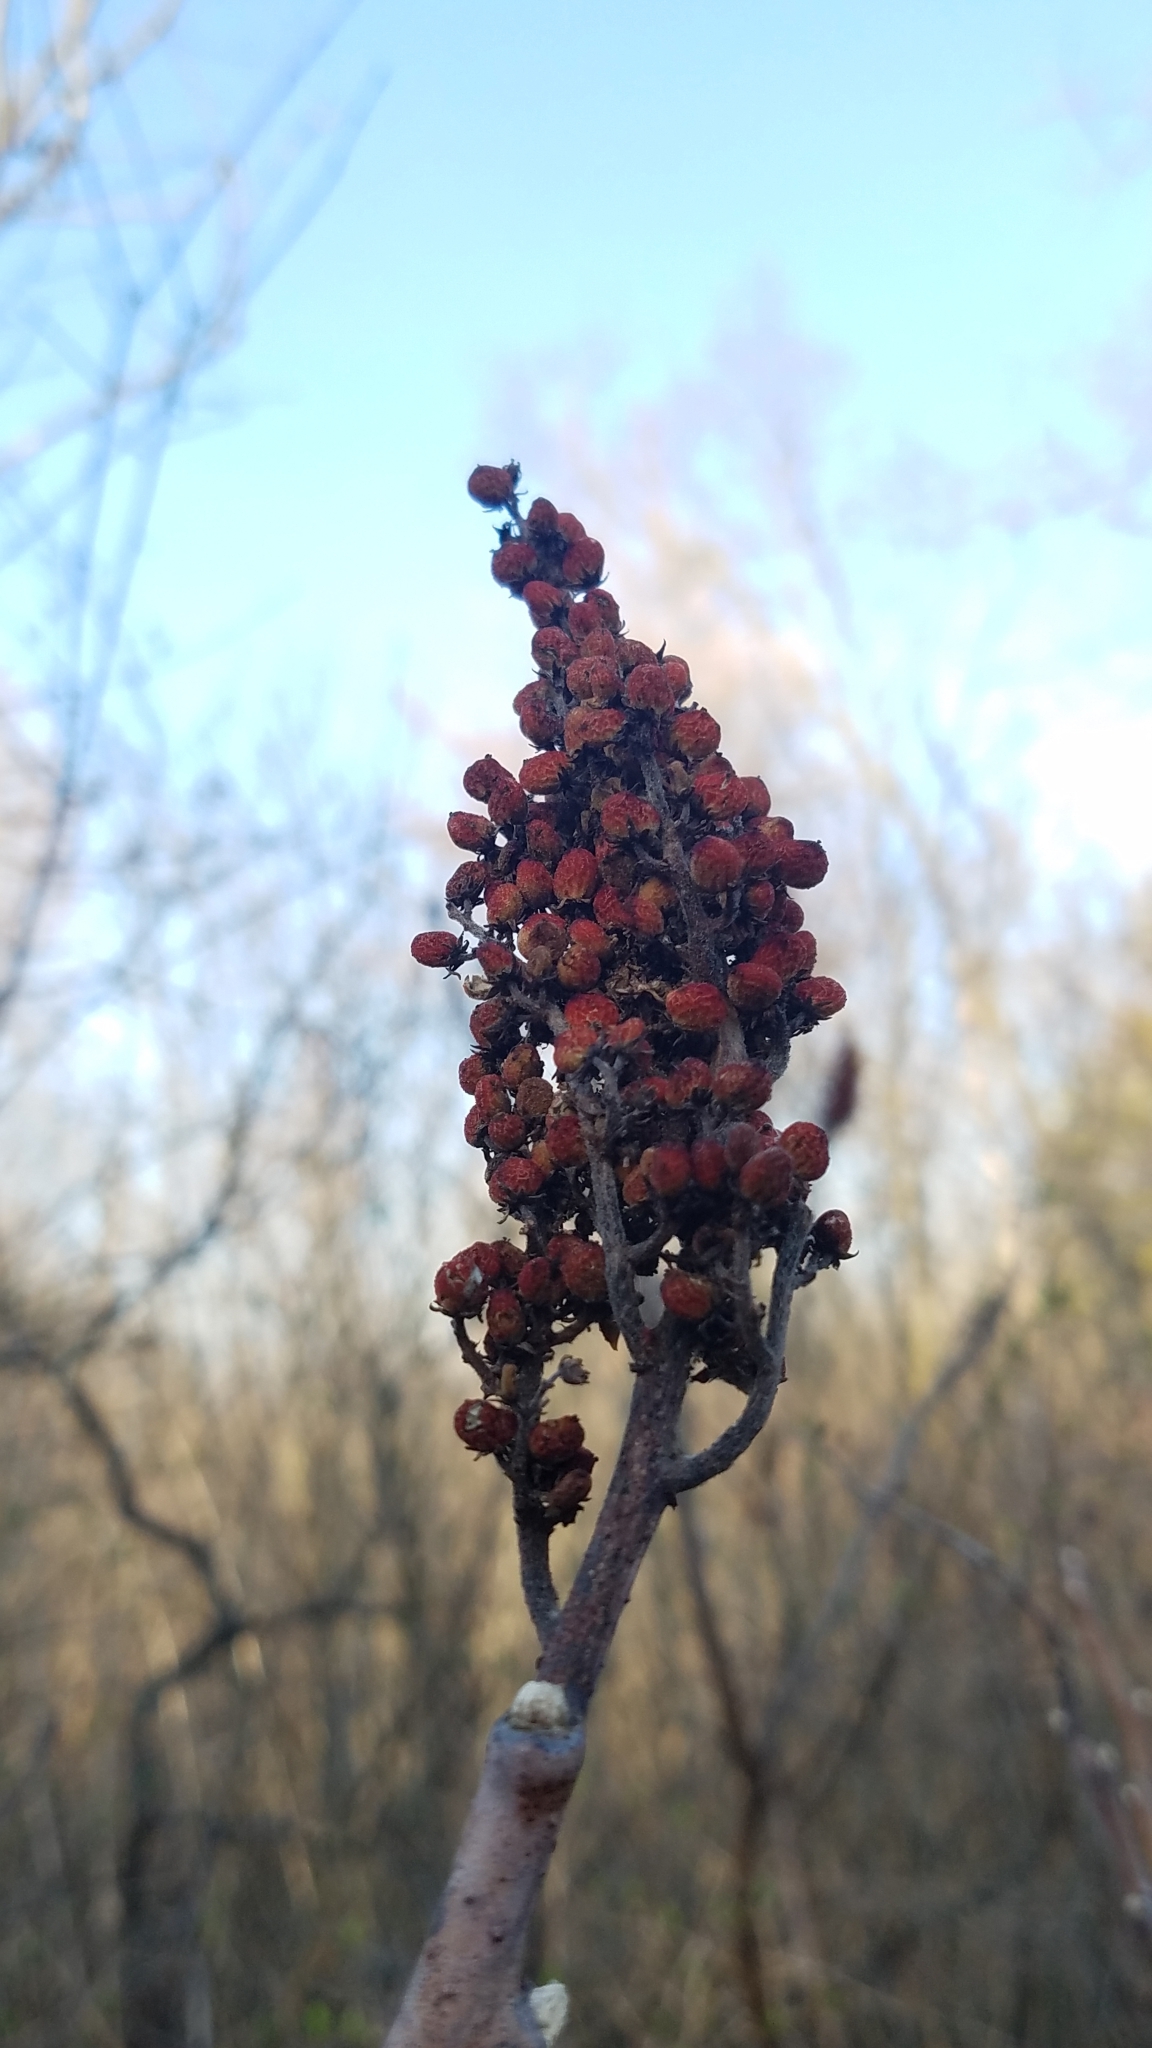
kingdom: Plantae
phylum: Tracheophyta
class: Magnoliopsida
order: Sapindales
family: Anacardiaceae
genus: Rhus
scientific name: Rhus glabra
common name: Scarlet sumac
